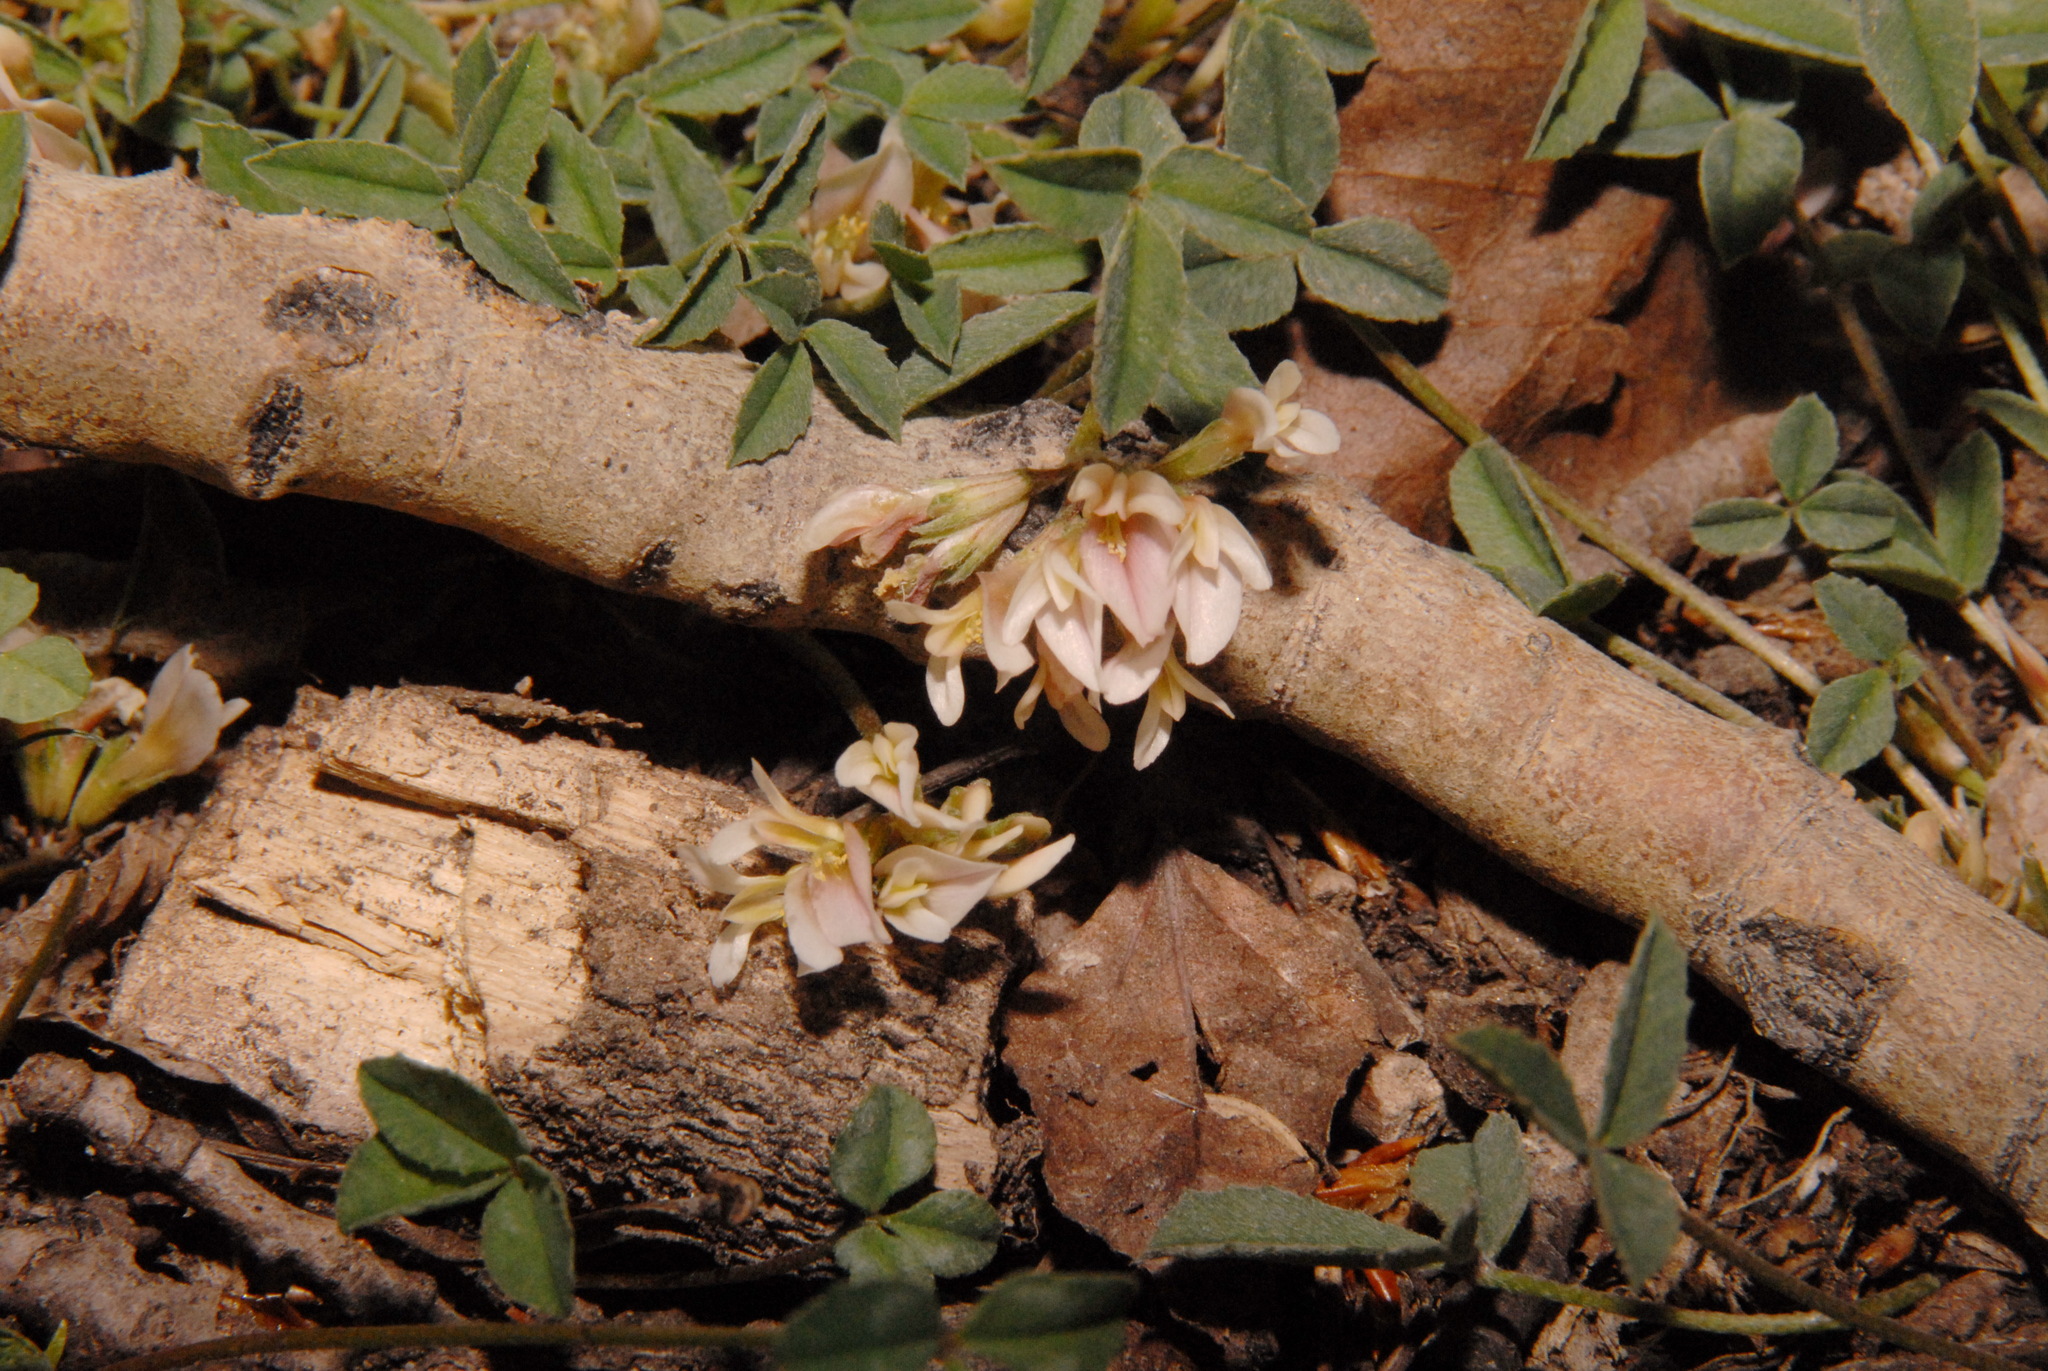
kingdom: Plantae
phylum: Tracheophyta
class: Magnoliopsida
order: Fabales
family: Fabaceae
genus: Trifolium
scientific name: Trifolium gymnocarpon
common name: Tufted clover
